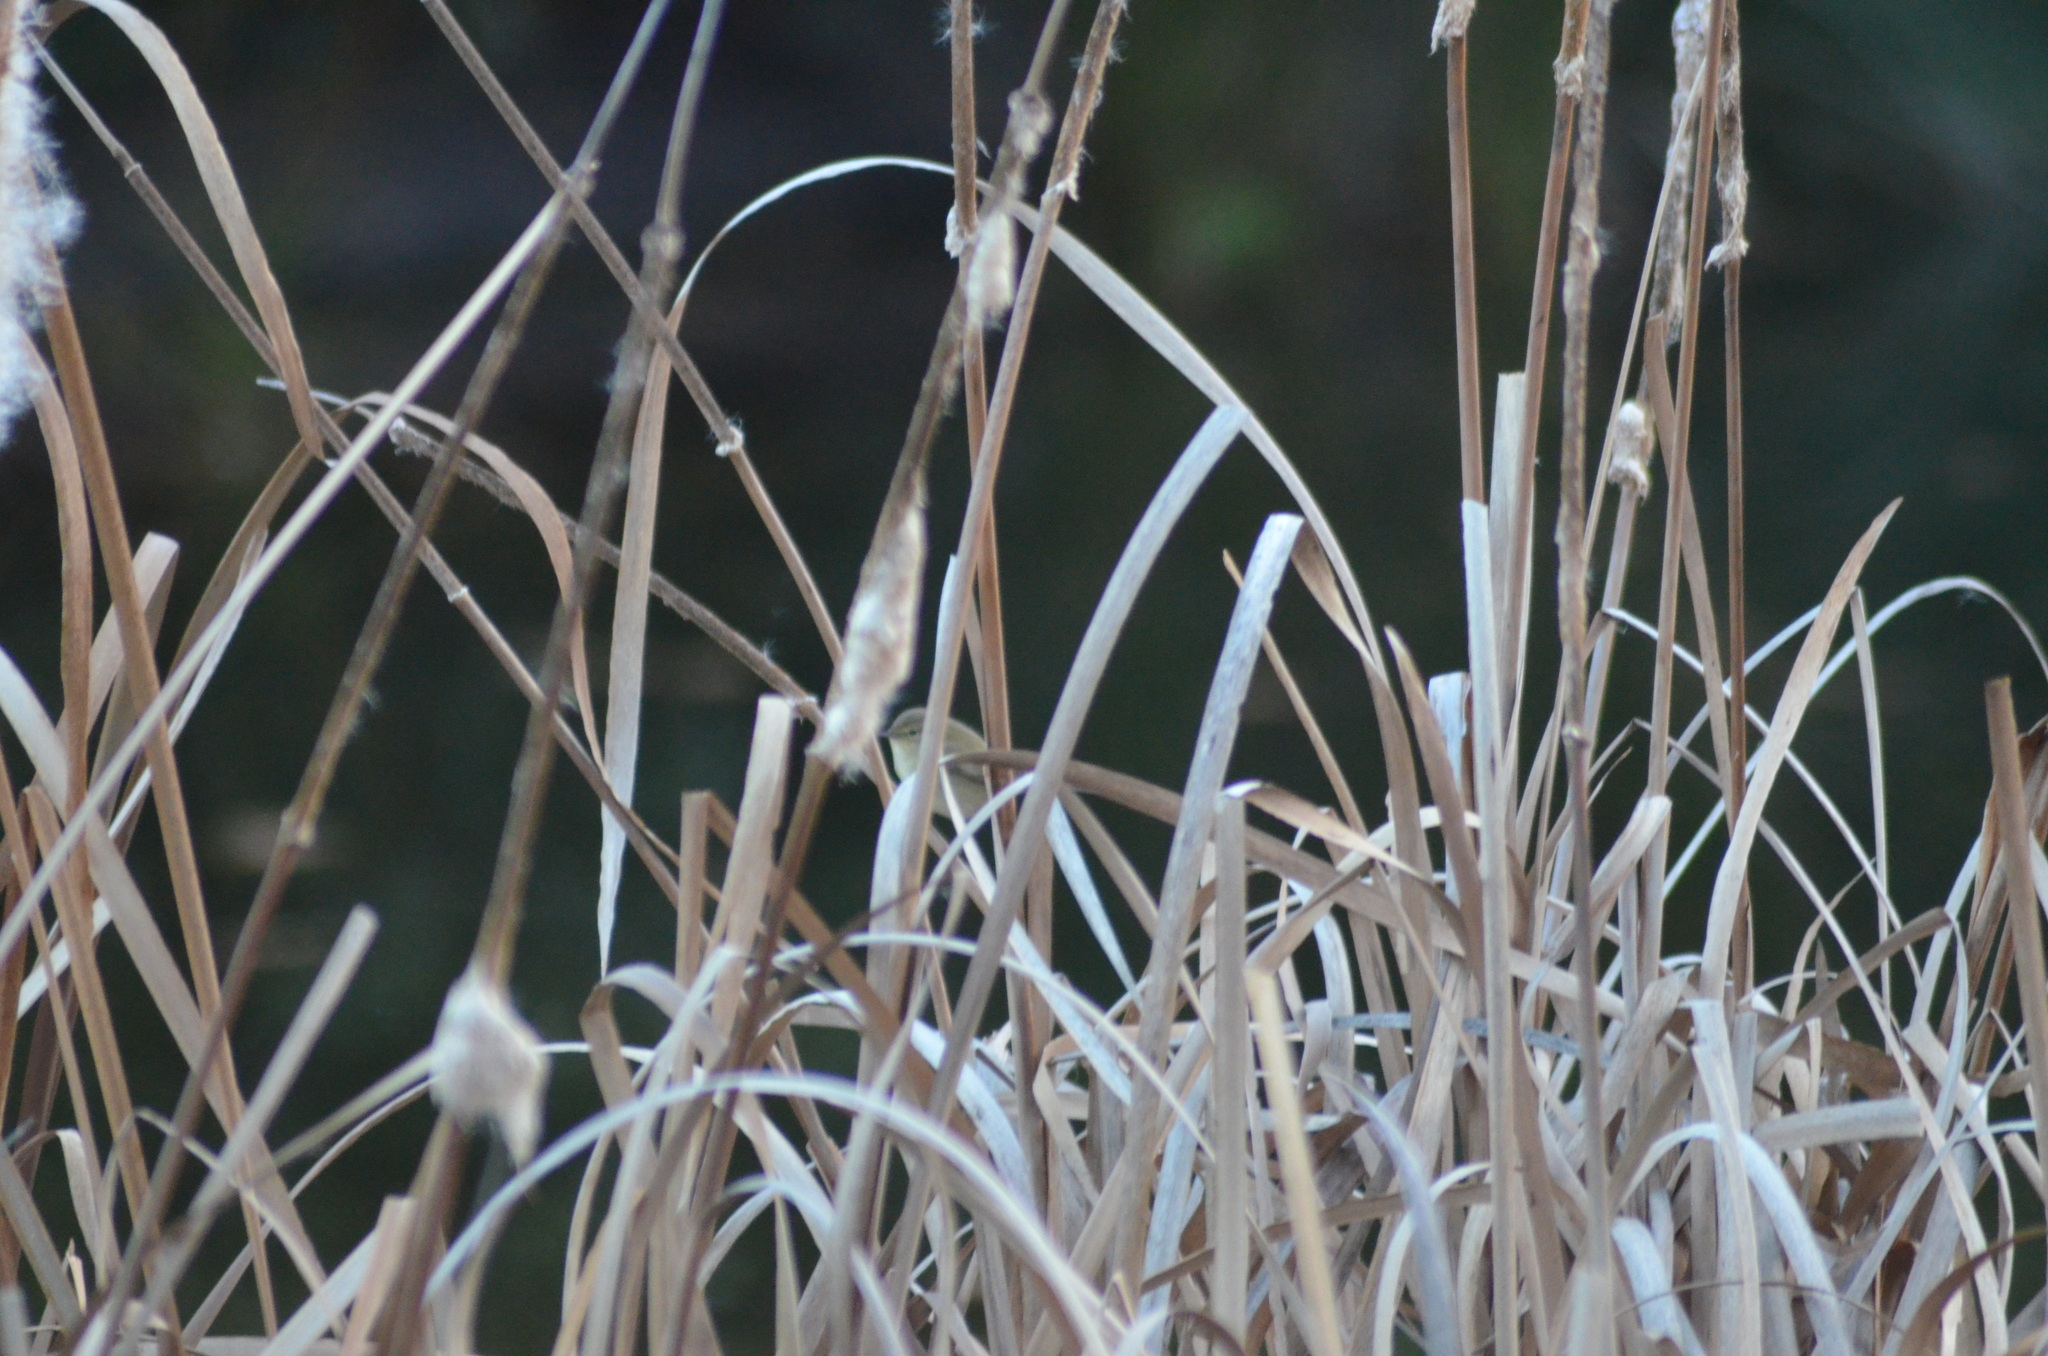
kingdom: Animalia
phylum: Chordata
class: Aves
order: Passeriformes
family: Phylloscopidae
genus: Phylloscopus
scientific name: Phylloscopus collybita
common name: Common chiffchaff
